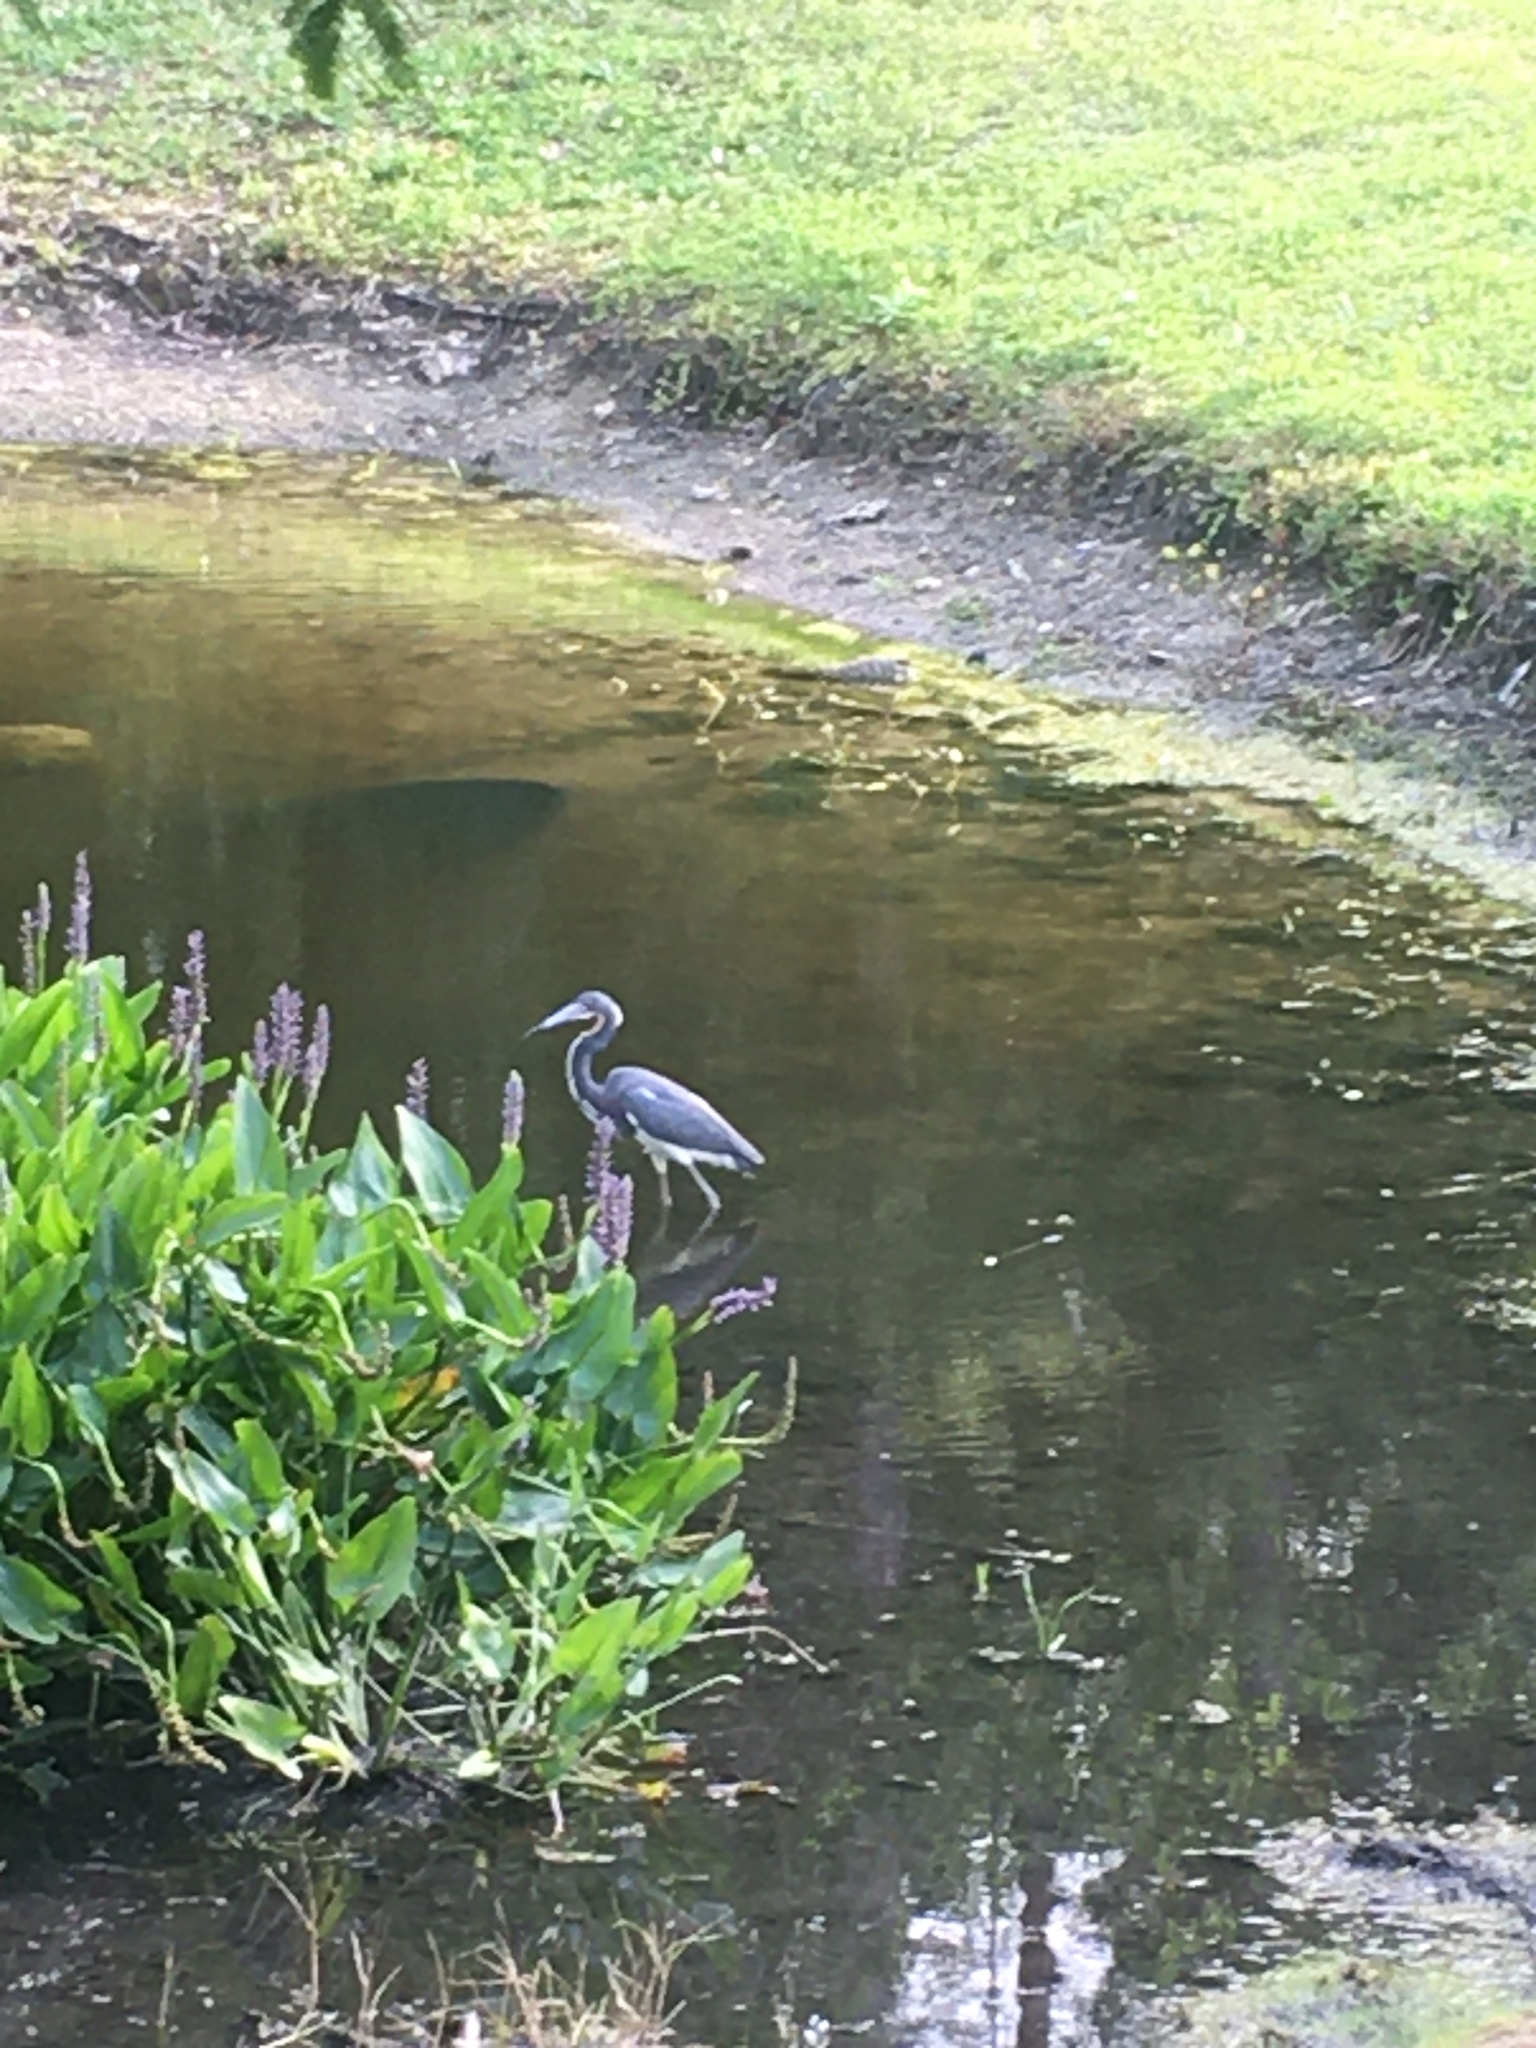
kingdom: Animalia
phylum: Chordata
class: Aves
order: Pelecaniformes
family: Ardeidae
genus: Egretta
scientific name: Egretta tricolor
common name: Tricolored heron
